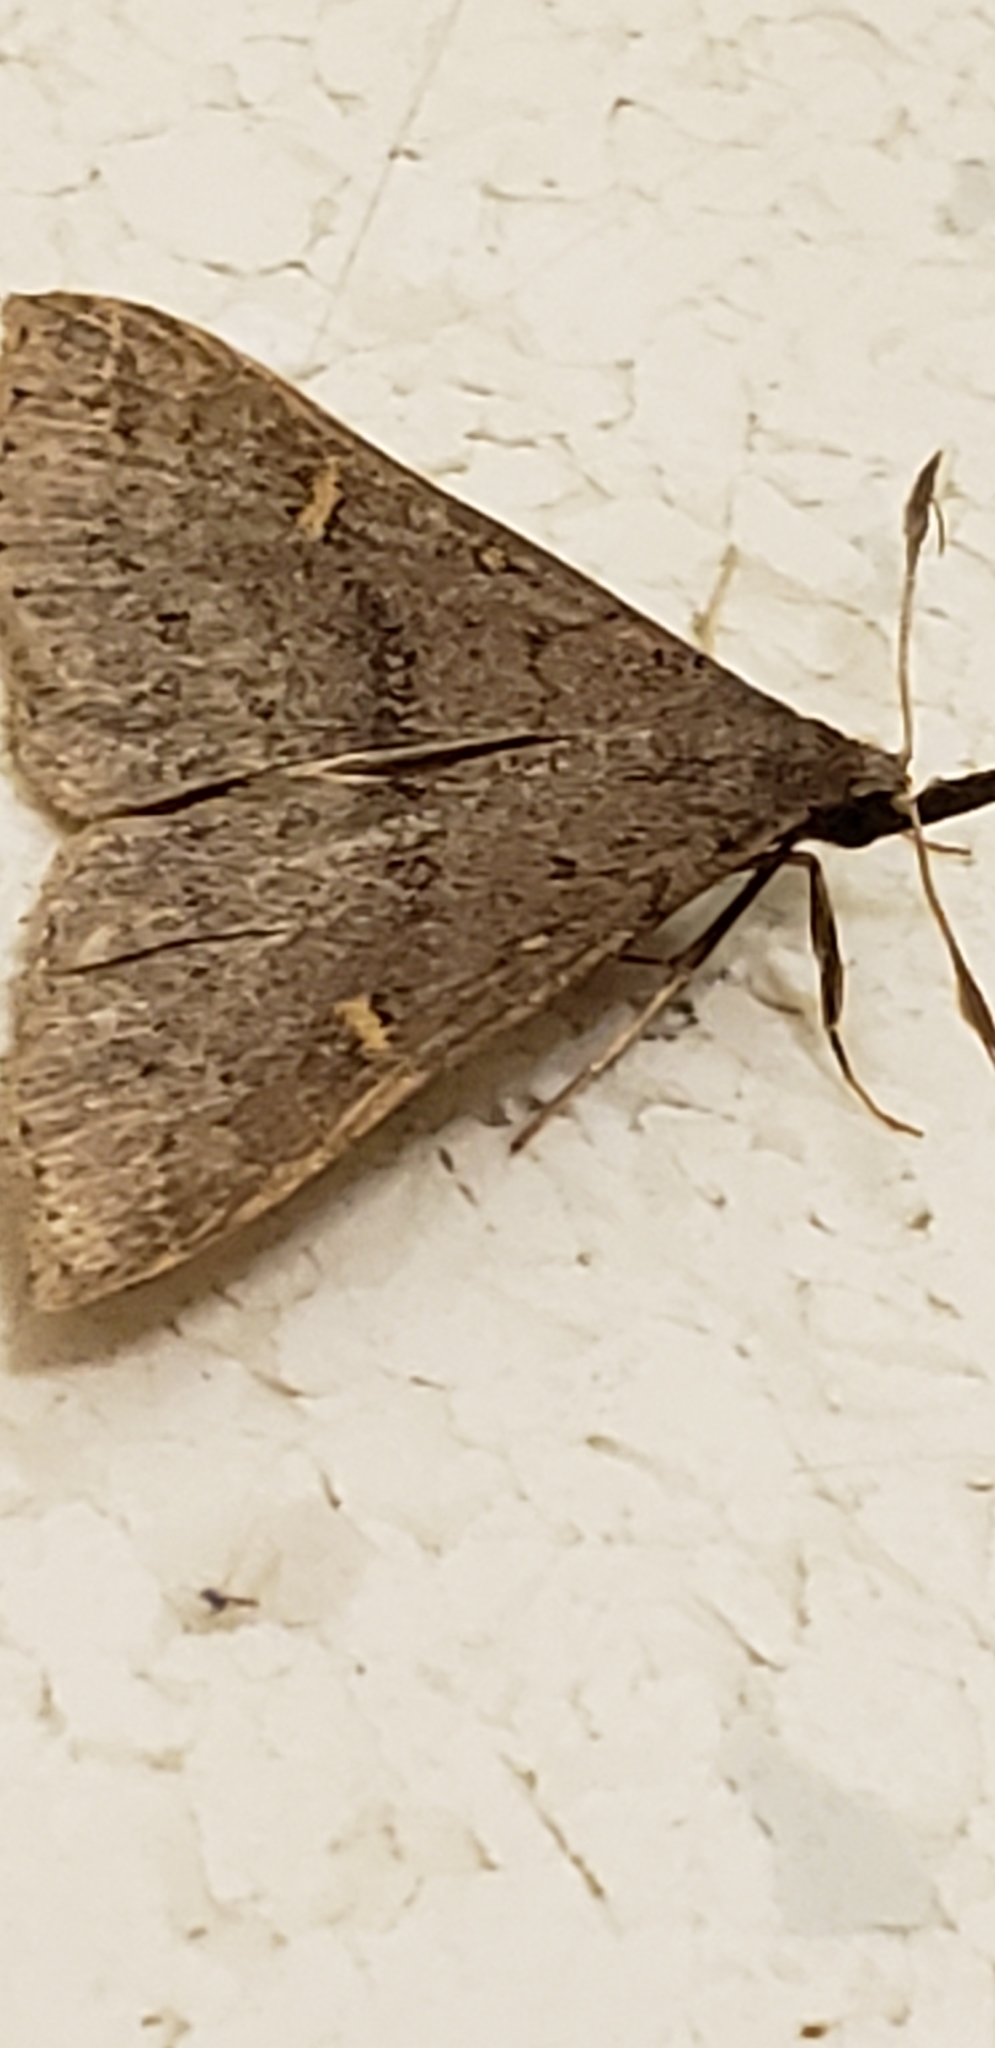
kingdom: Animalia
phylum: Arthropoda
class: Insecta
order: Lepidoptera
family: Erebidae
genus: Renia
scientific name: Renia adspergillus
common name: Speckled renia moth
